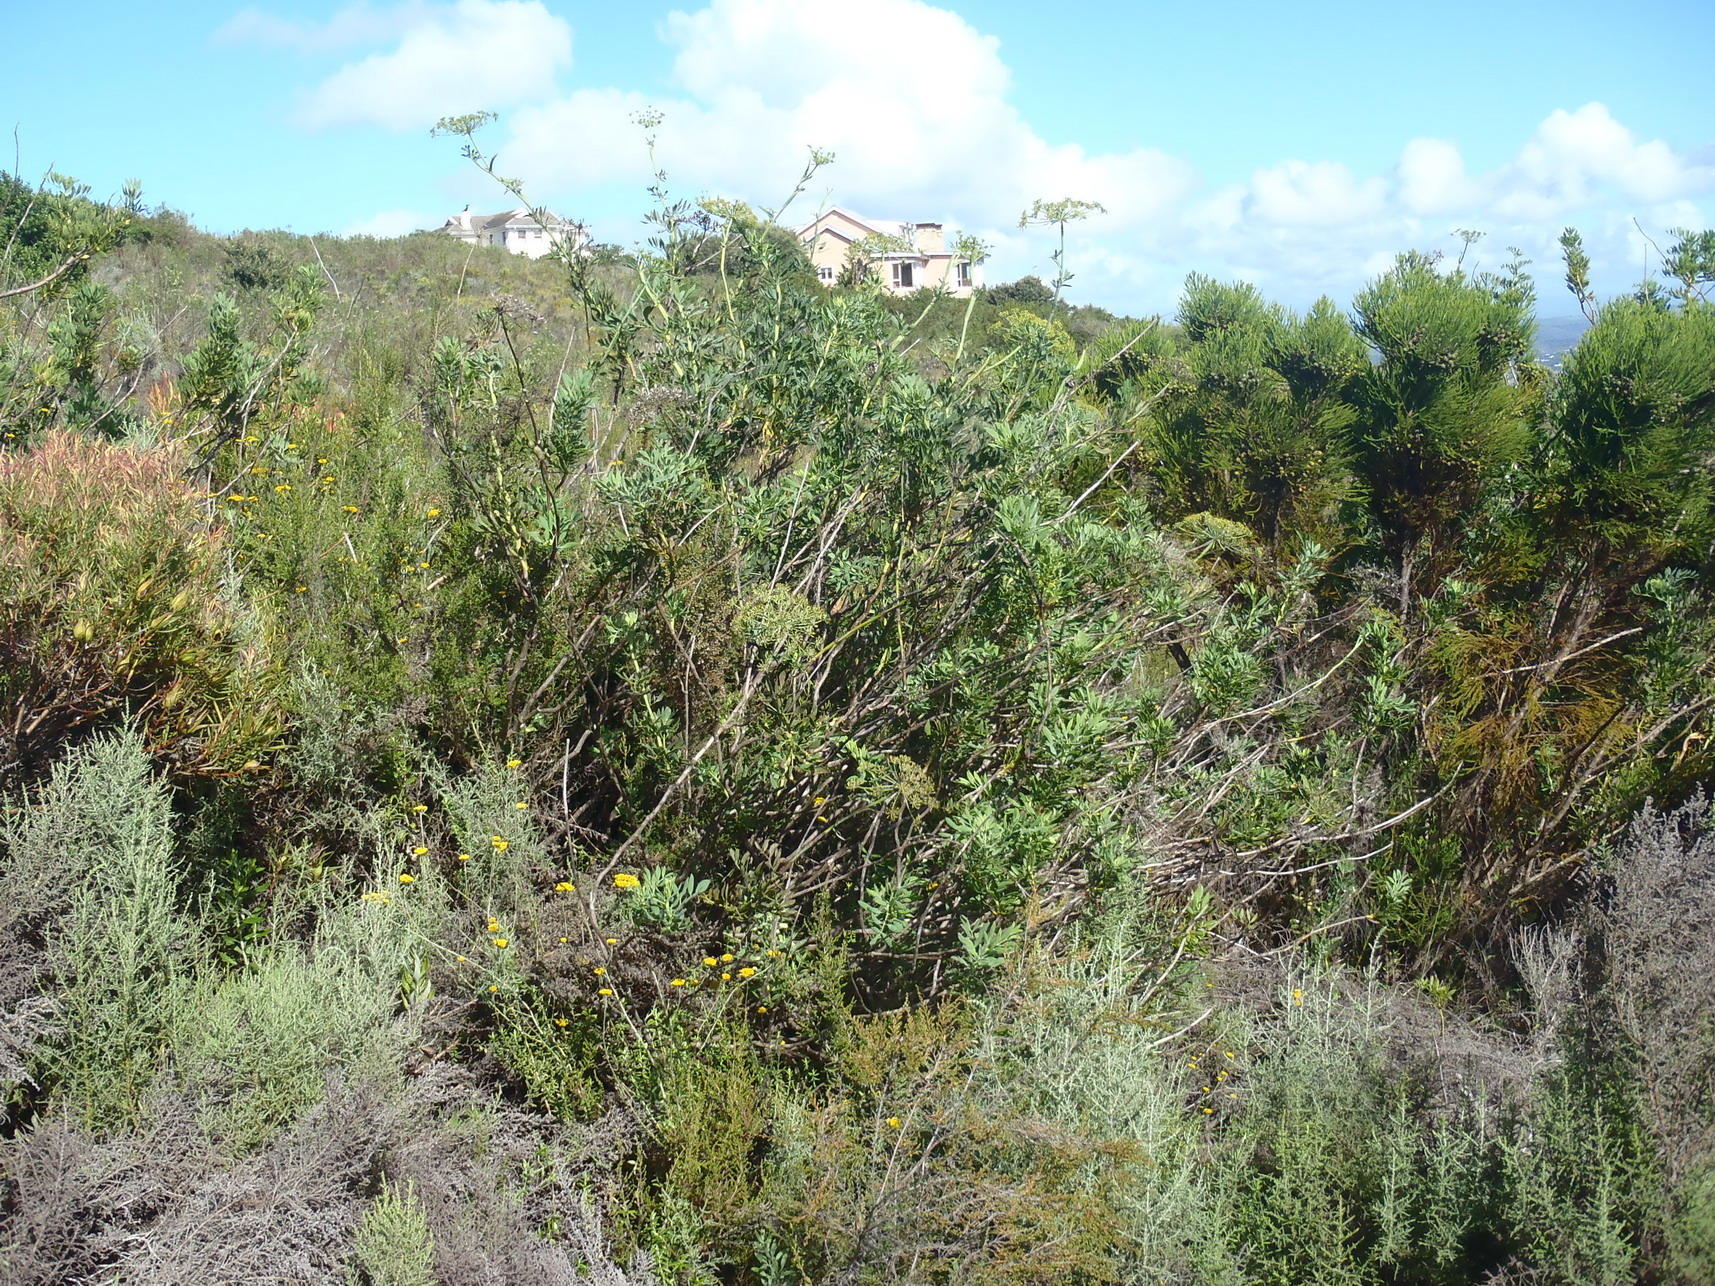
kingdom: Plantae
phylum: Tracheophyta
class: Magnoliopsida
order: Apiales
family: Apiaceae
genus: Notobubon
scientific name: Notobubon laevigatum
